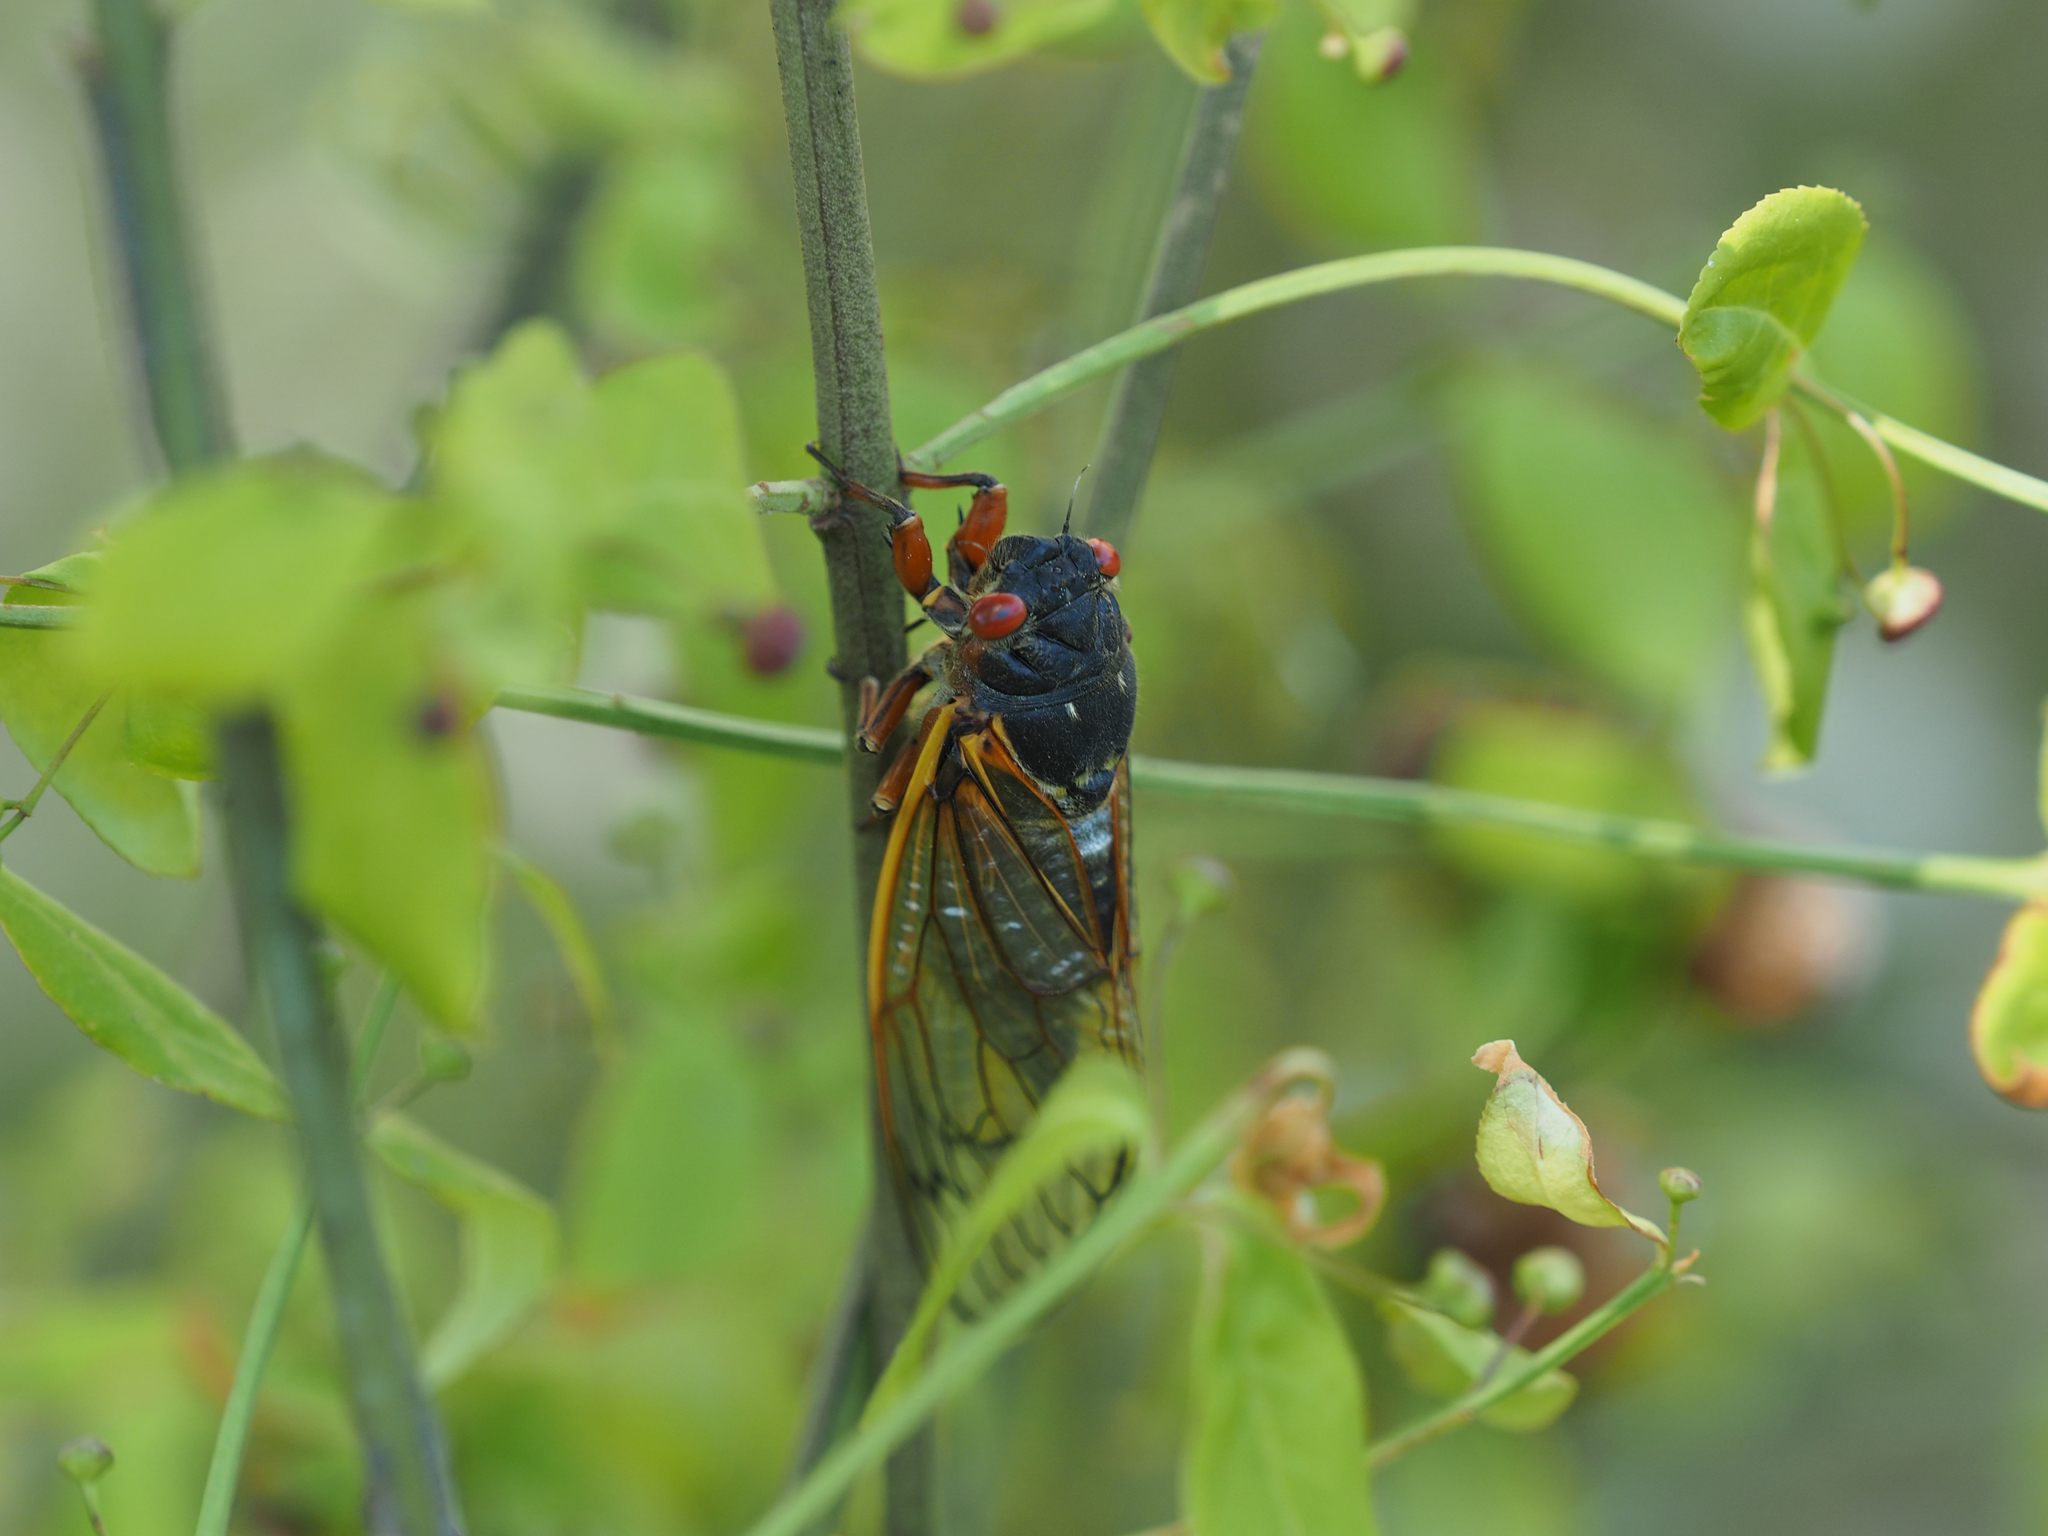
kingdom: Animalia
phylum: Arthropoda
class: Insecta
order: Hemiptera
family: Cicadidae
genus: Magicicada
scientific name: Magicicada septendecim
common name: Periodical cicada
